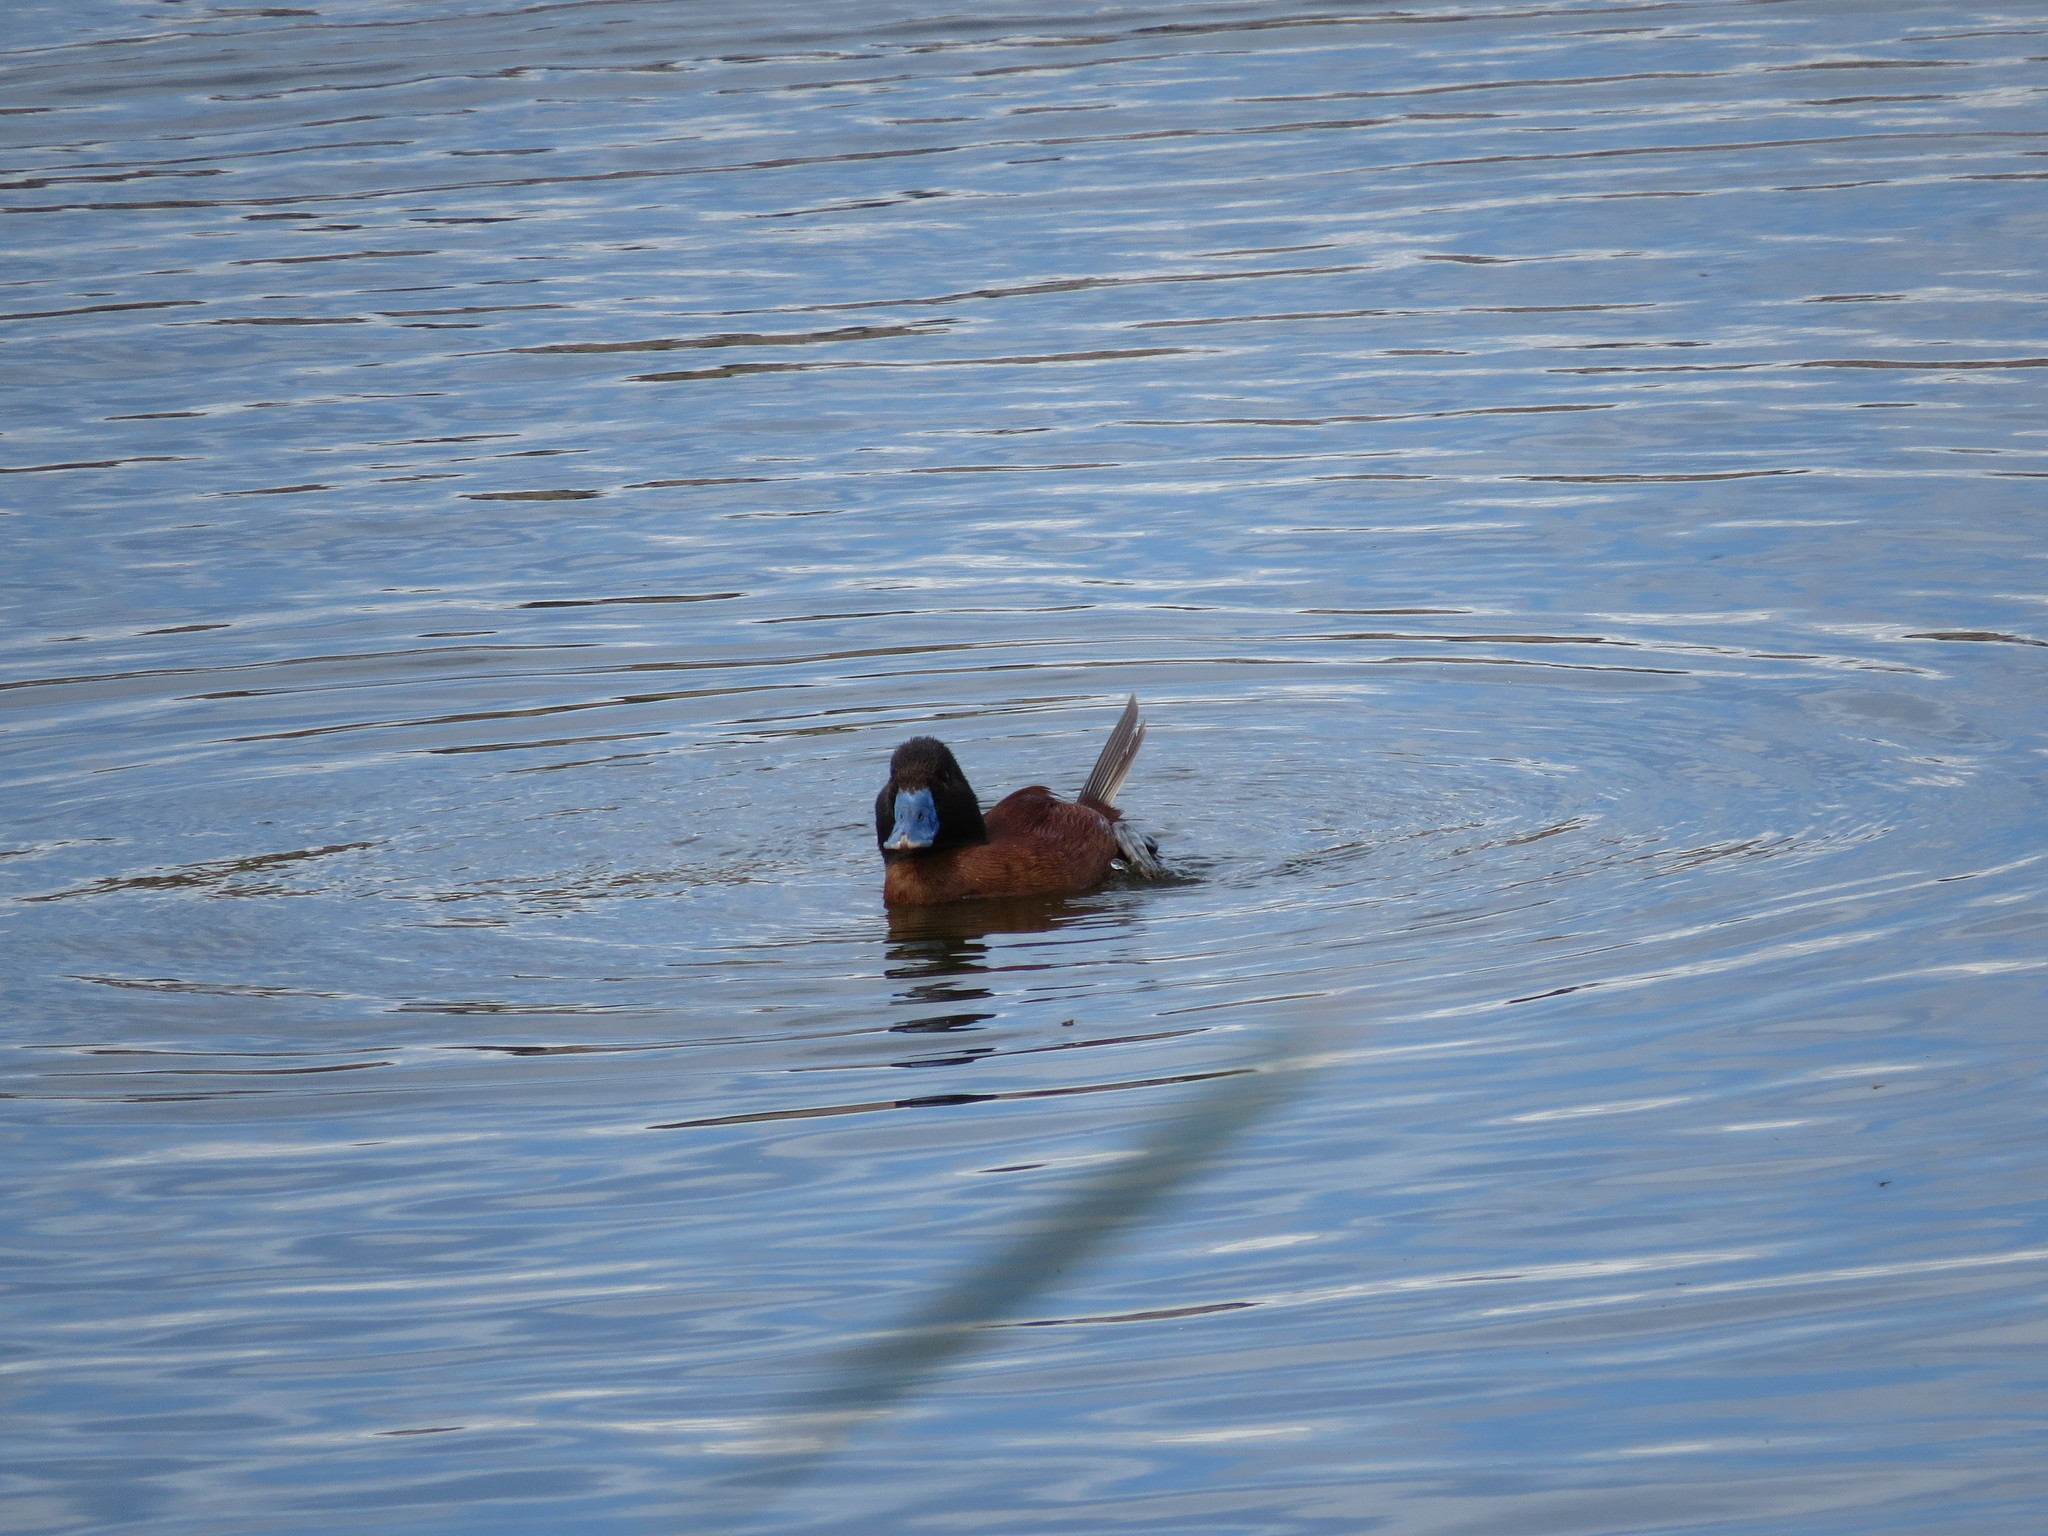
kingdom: Animalia
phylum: Chordata
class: Aves
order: Anseriformes
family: Anatidae
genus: Oxyura
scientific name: Oxyura vittata
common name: Lake duck
